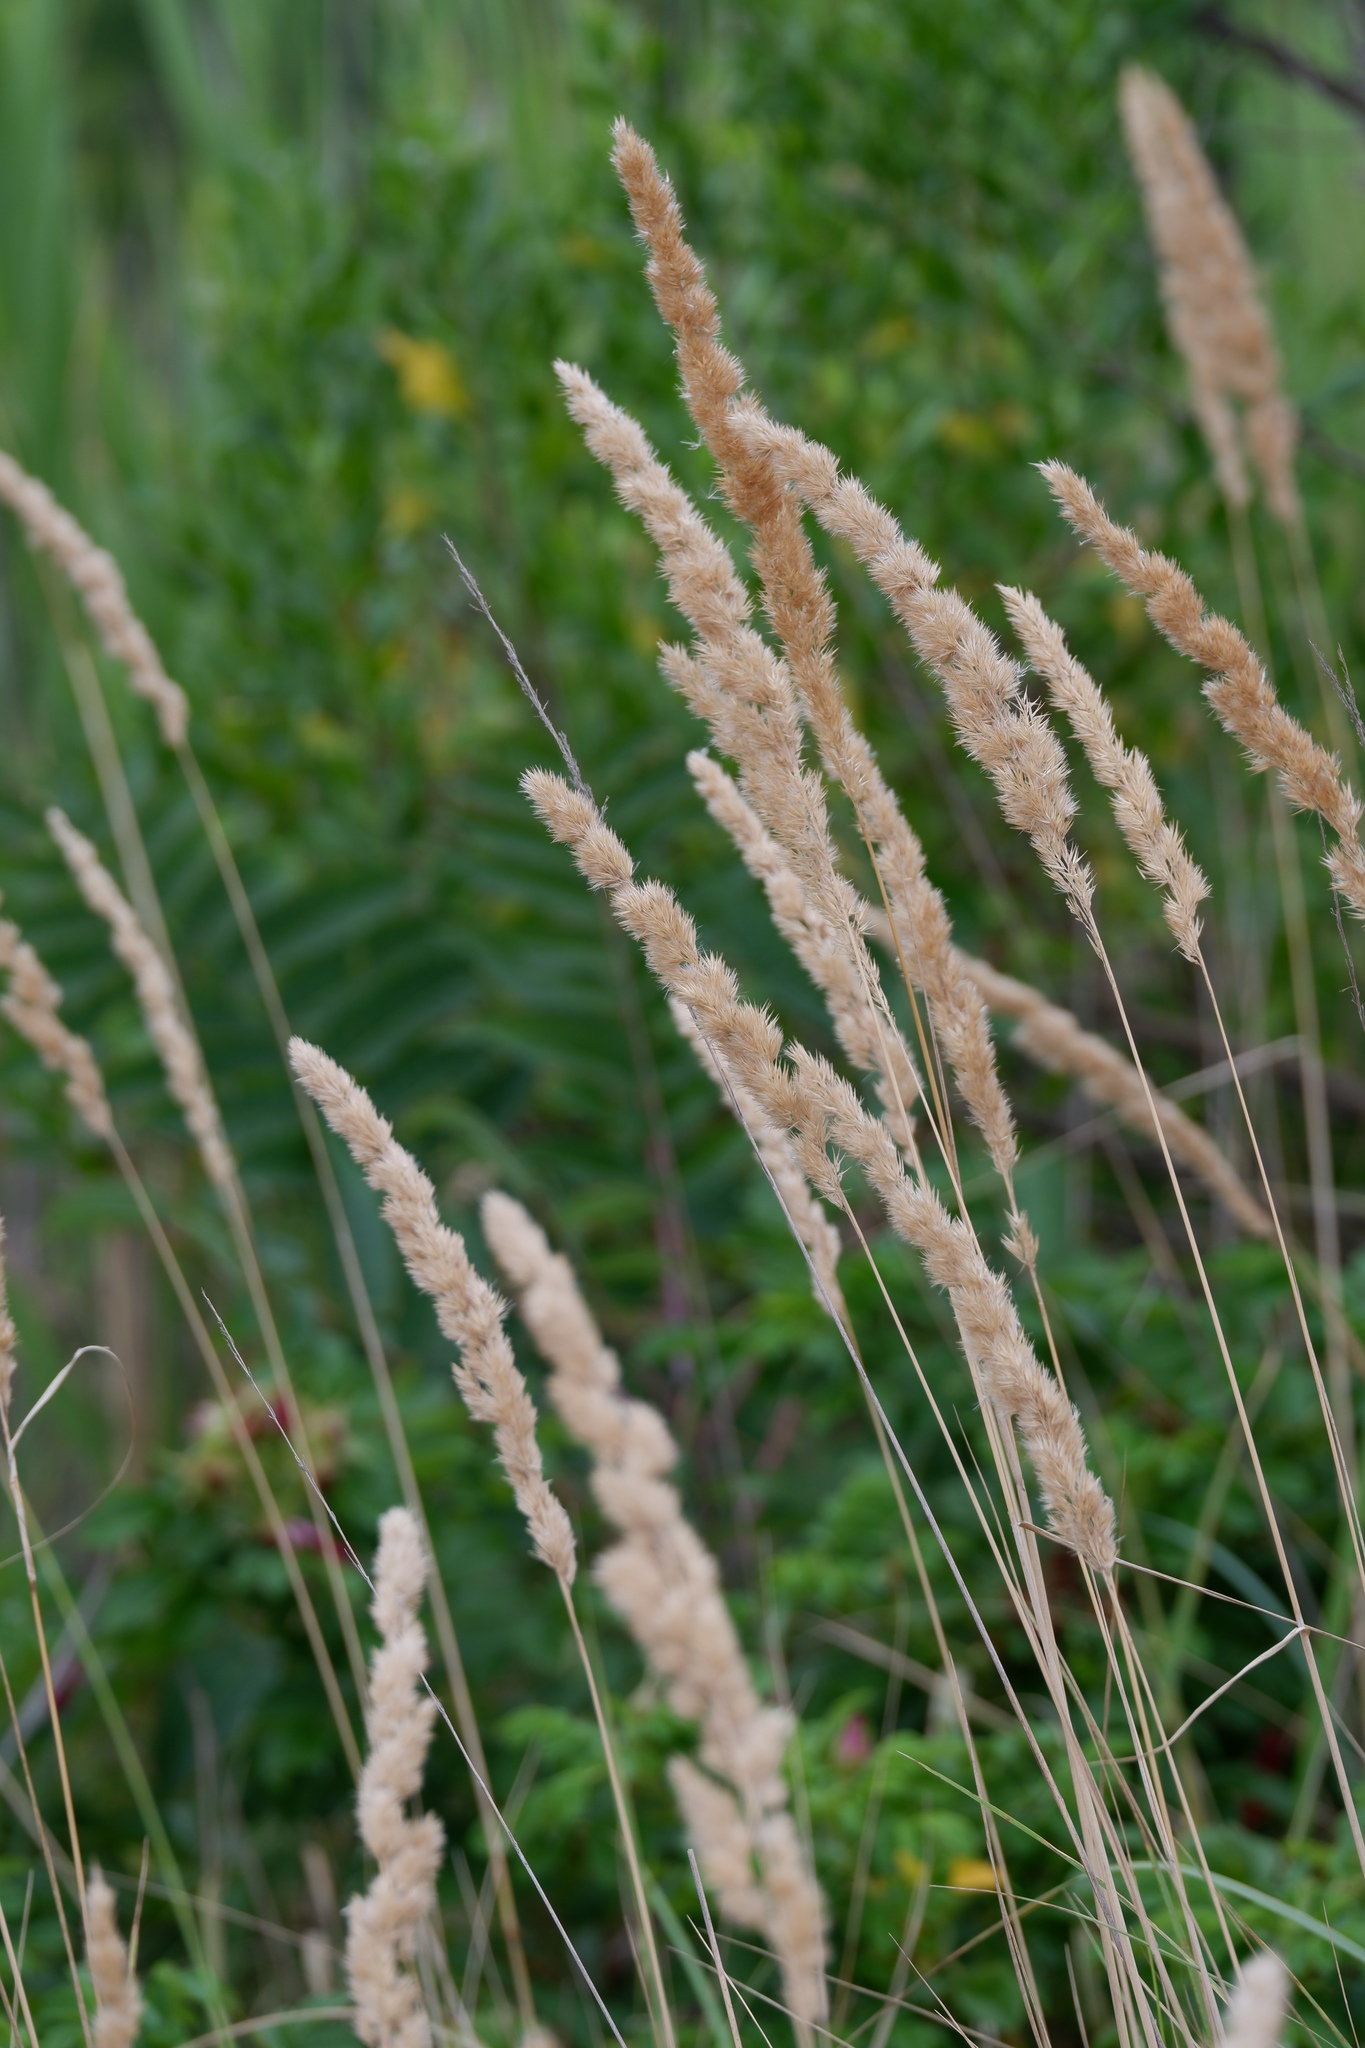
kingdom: Plantae
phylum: Tracheophyta
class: Liliopsida
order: Poales
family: Poaceae
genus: Calamagrostis
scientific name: Calamagrostis epigejos
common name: Wood small-reed
